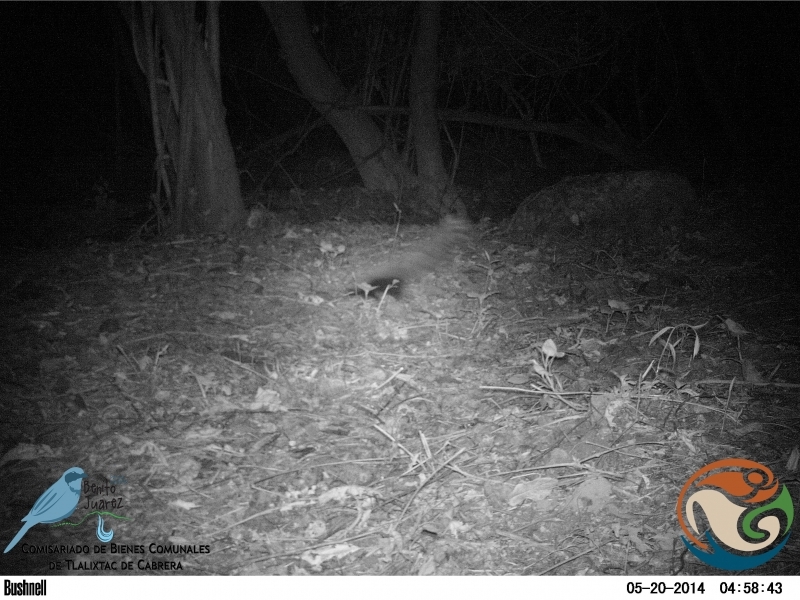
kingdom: Animalia
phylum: Chordata
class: Mammalia
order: Carnivora
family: Mephitidae
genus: Mephitis
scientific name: Mephitis macroura
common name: Hooded skunk
